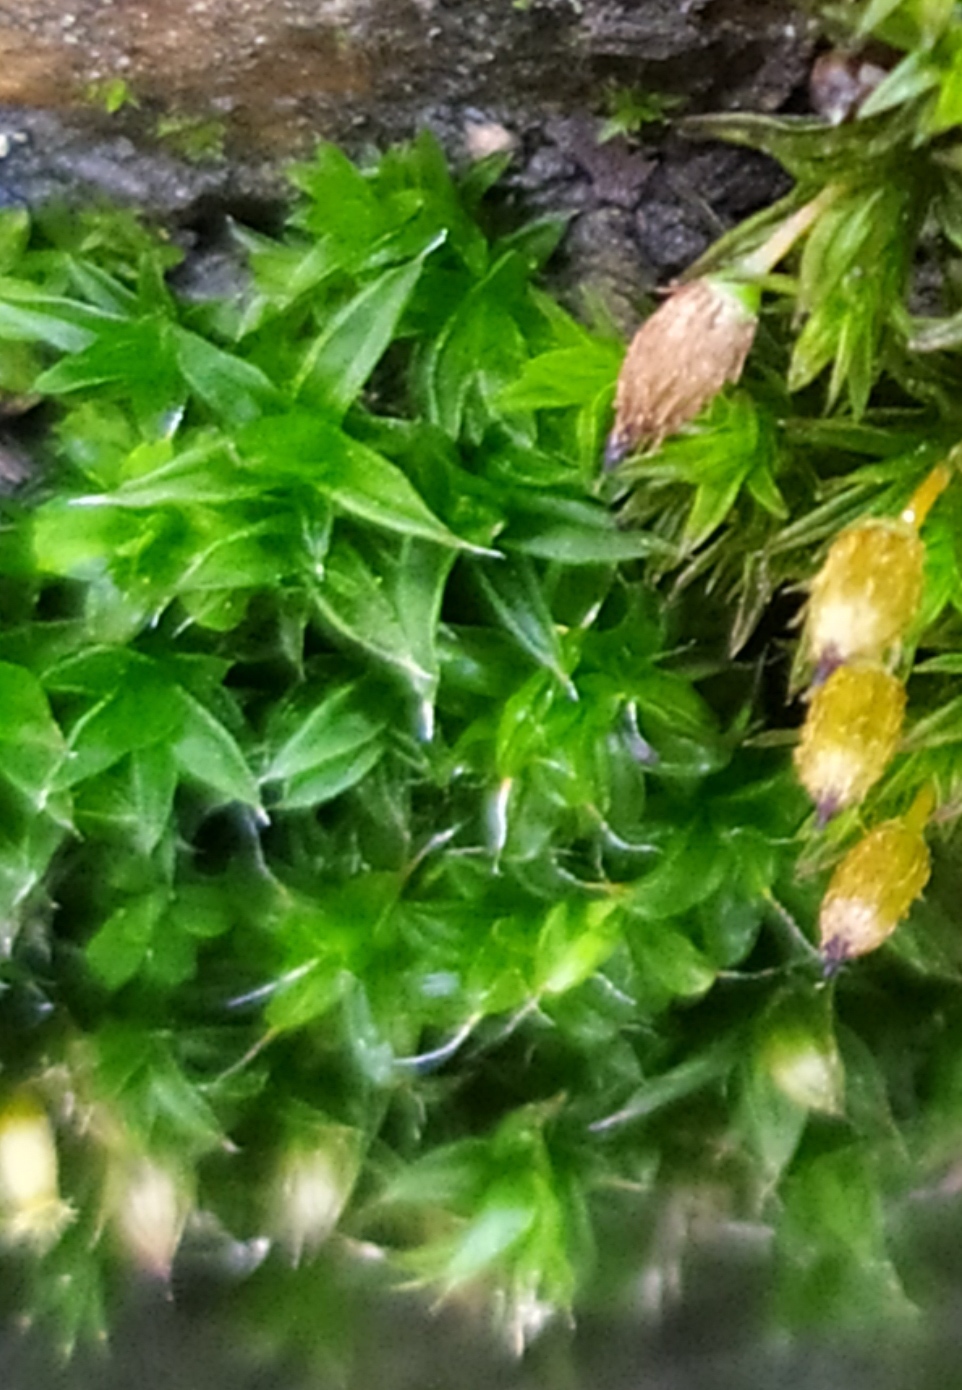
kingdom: Plantae
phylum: Bryophyta
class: Bryopsida
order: Orthotrichales
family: Orthotrichaceae
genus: Orthotrichum
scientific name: Orthotrichum diaphanum
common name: White-tipped bristle-moss
